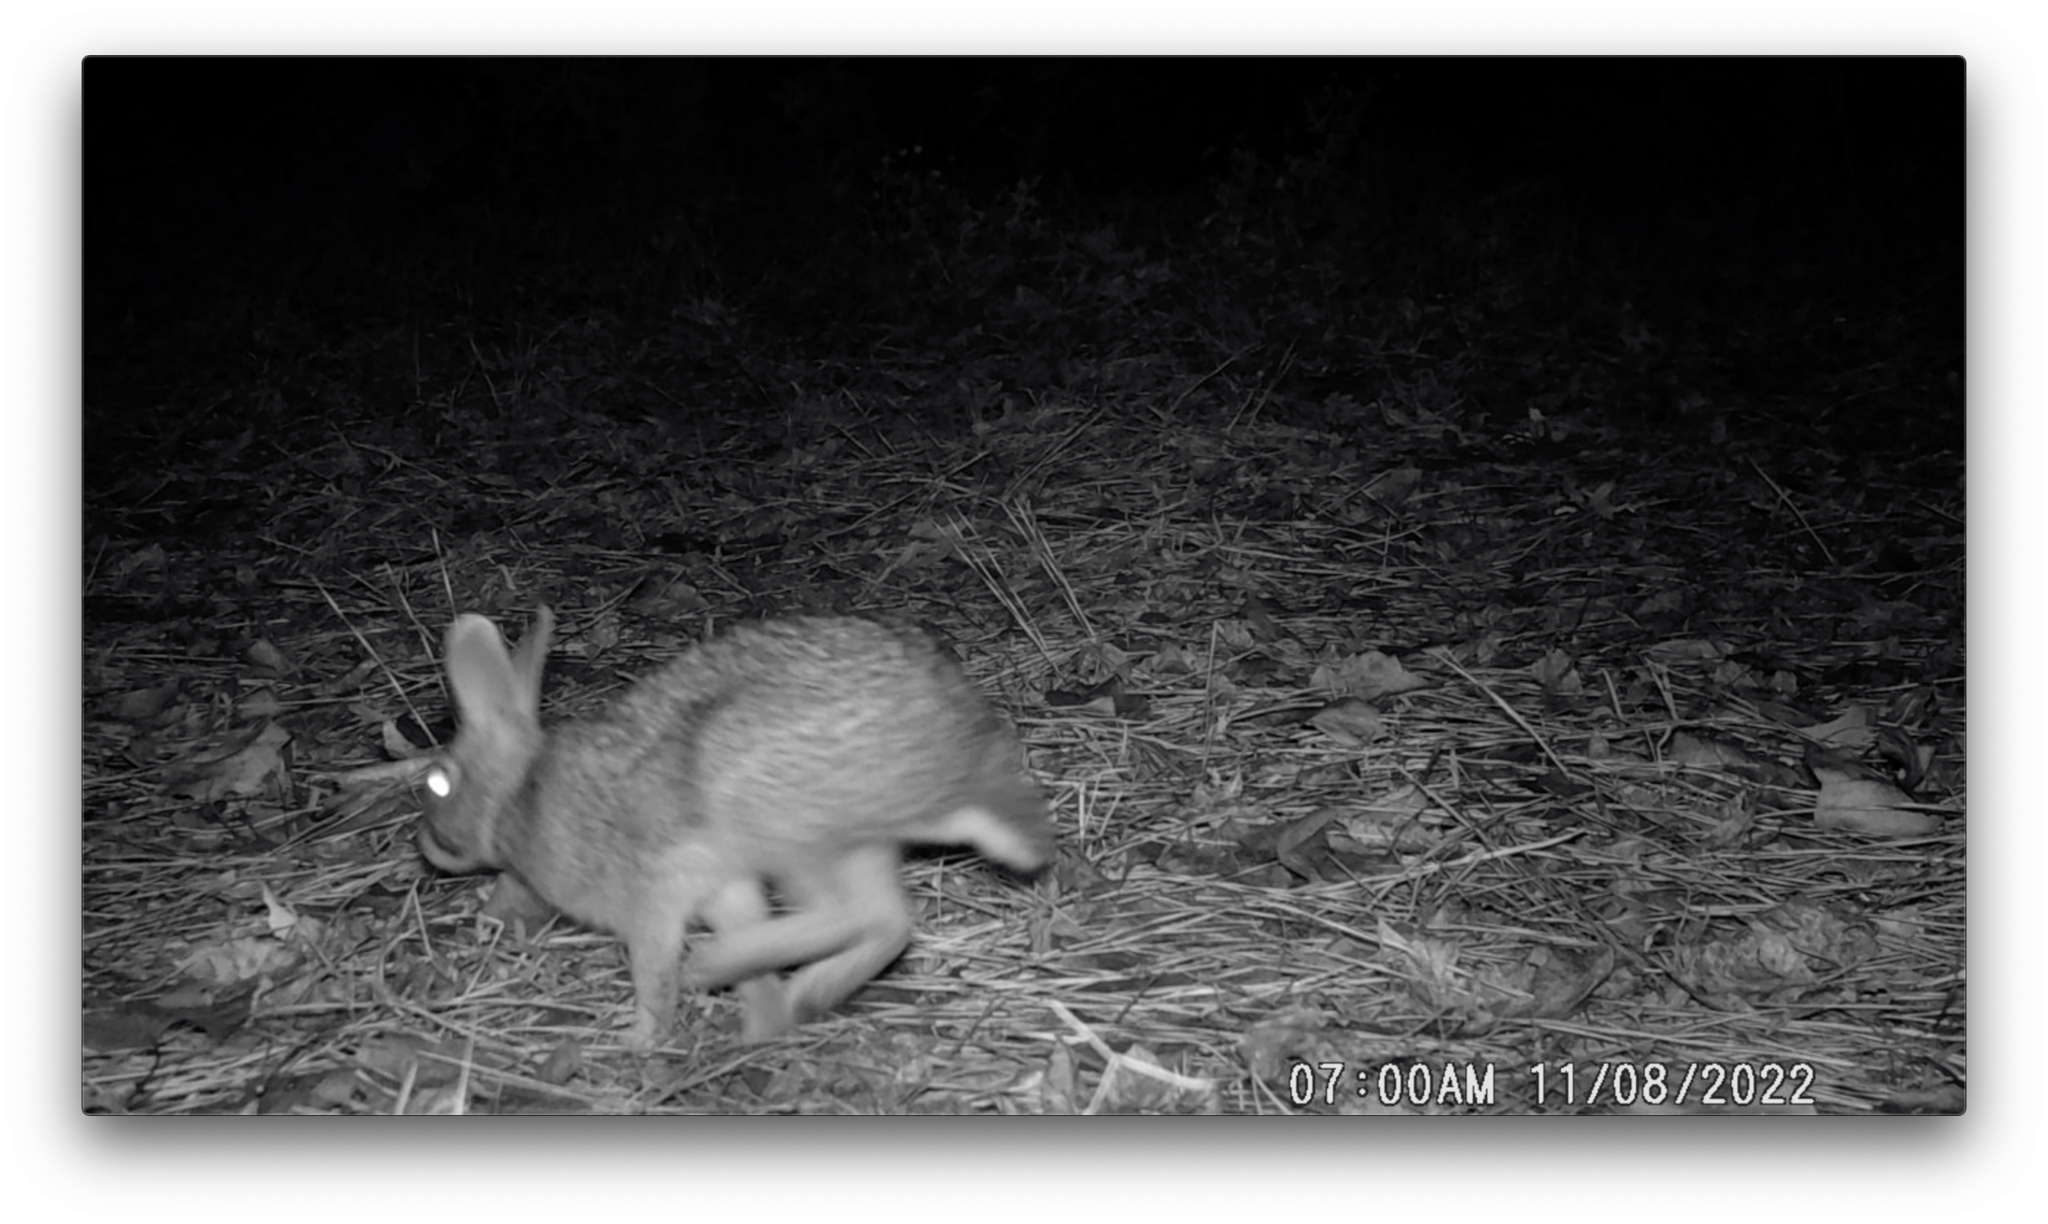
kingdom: Animalia
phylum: Chordata
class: Mammalia
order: Lagomorpha
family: Leporidae
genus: Sylvilagus
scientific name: Sylvilagus floridanus
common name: Eastern cottontail
